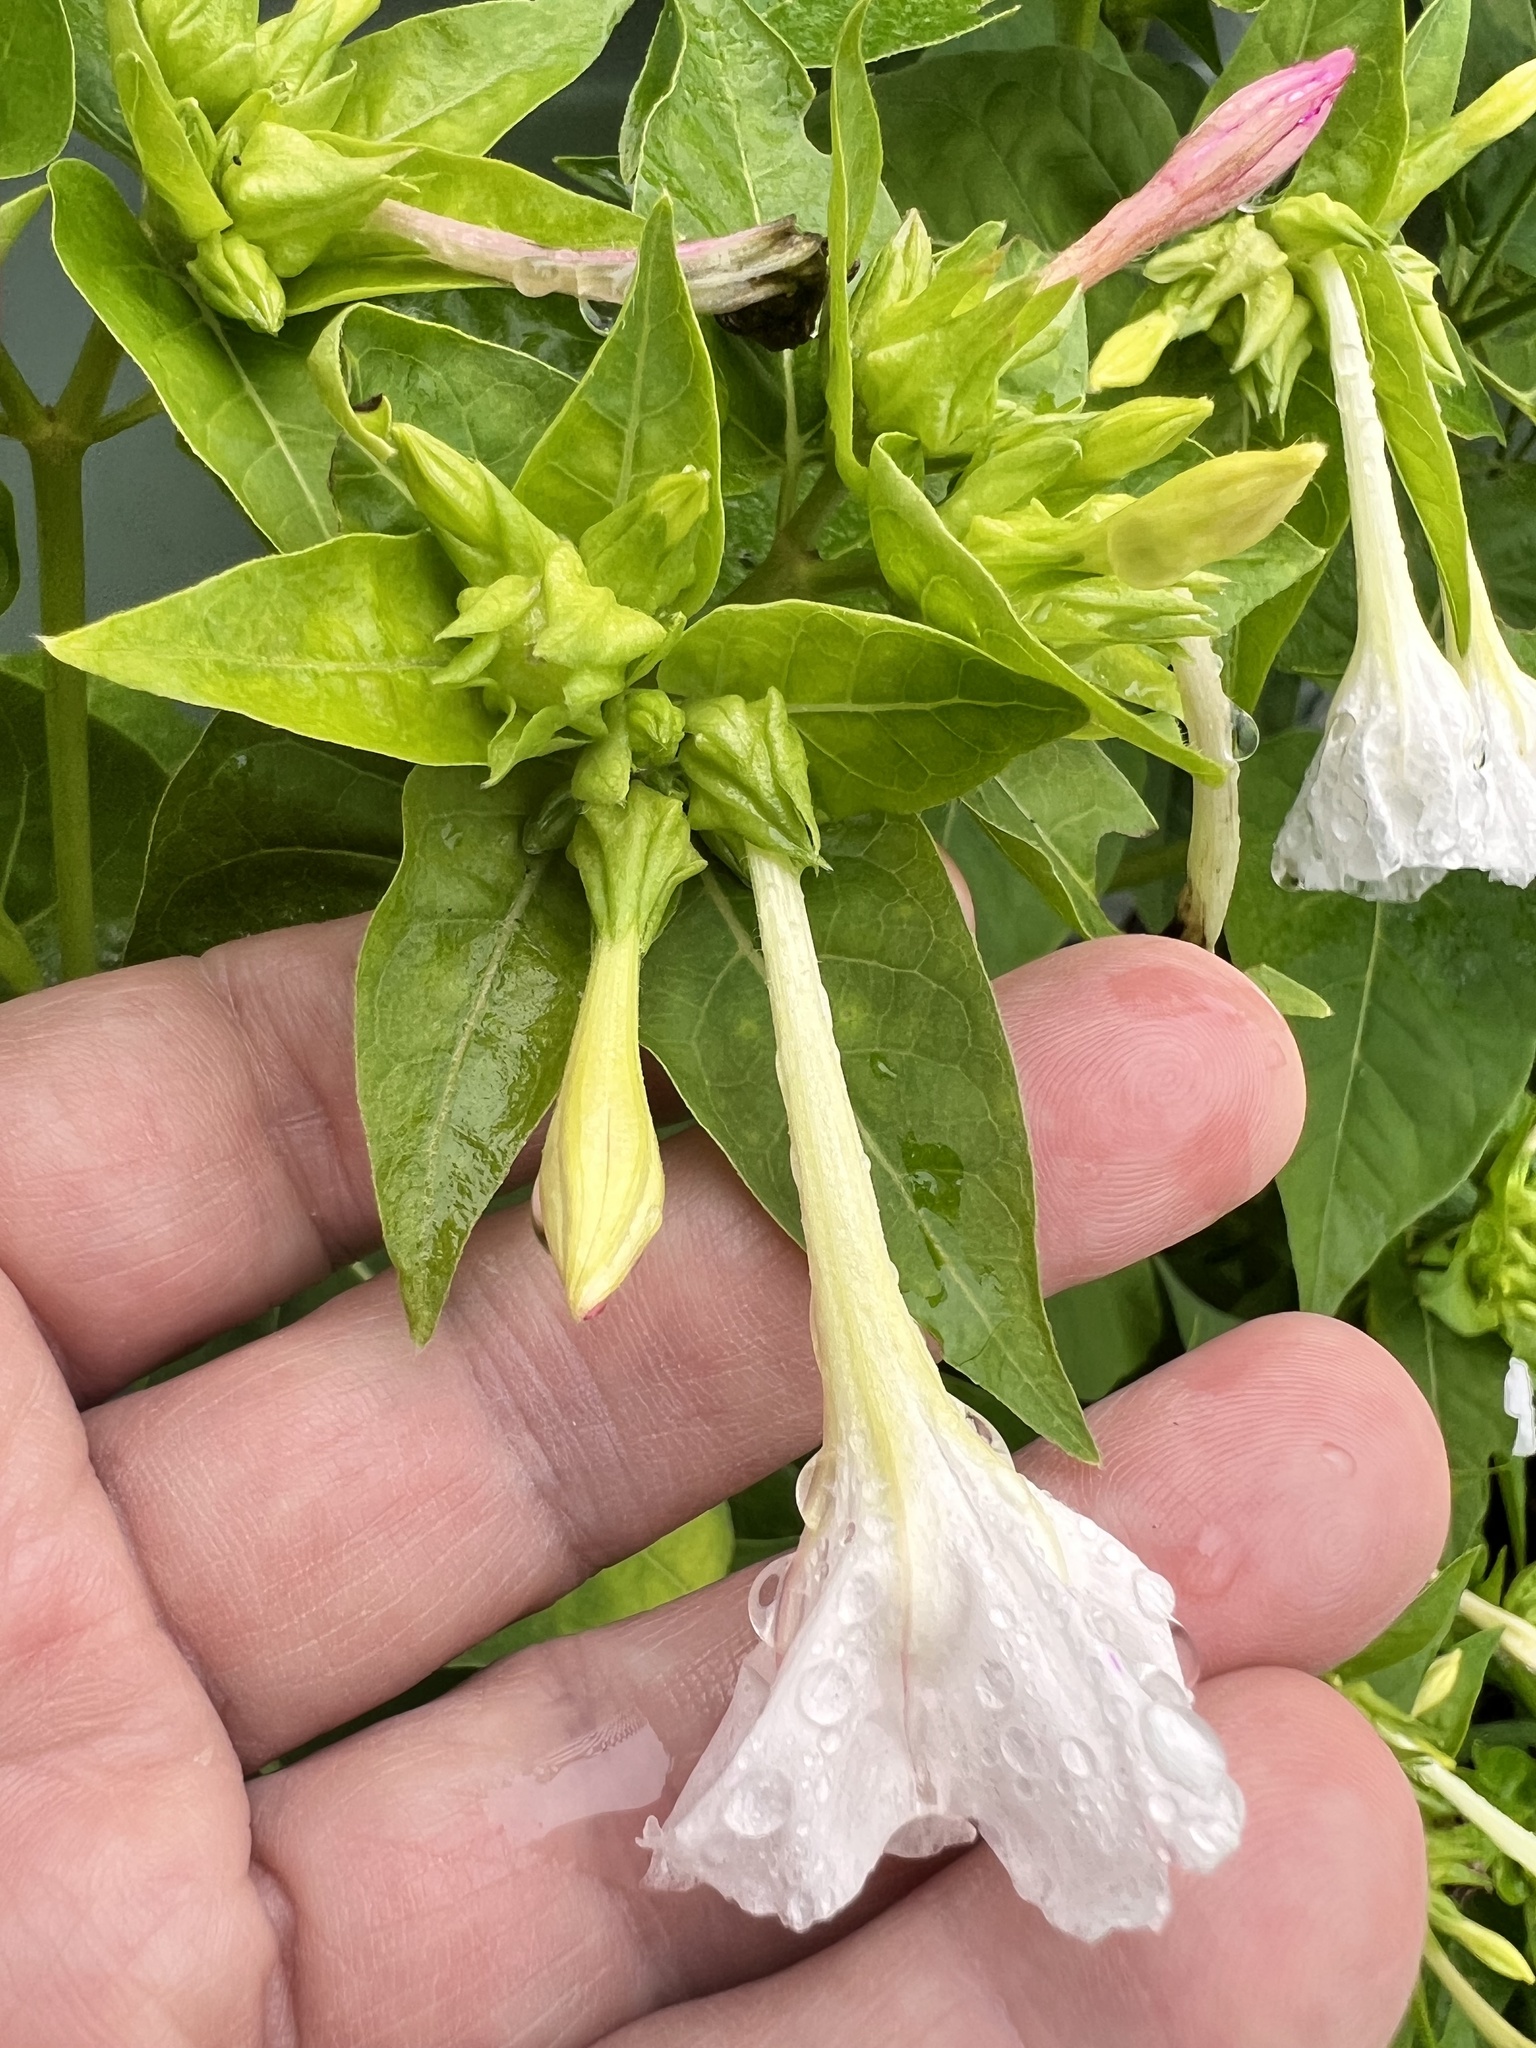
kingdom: Plantae
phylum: Tracheophyta
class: Magnoliopsida
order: Caryophyllales
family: Nyctaginaceae
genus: Mirabilis
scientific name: Mirabilis jalapa
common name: Marvel-of-peru
